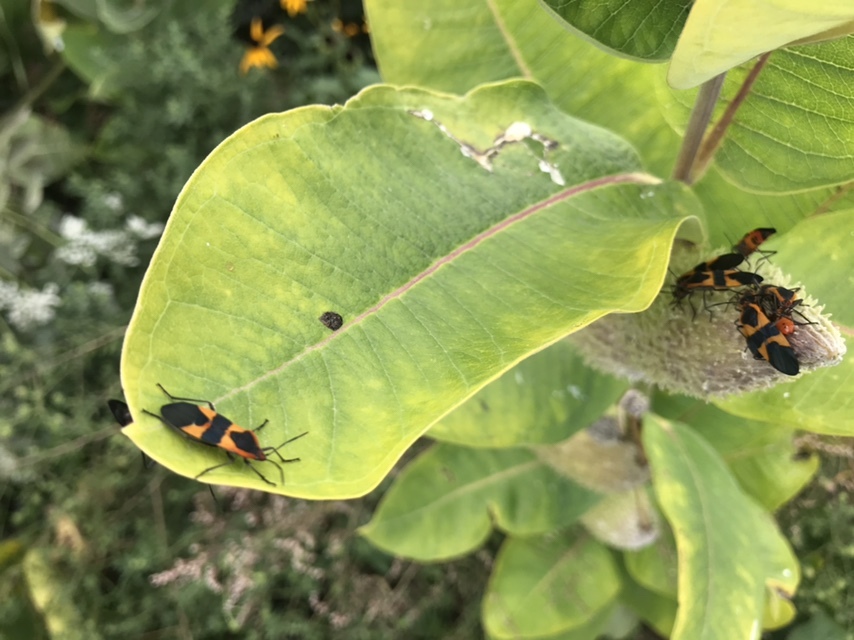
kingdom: Animalia
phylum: Arthropoda
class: Insecta
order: Hemiptera
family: Lygaeidae
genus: Oncopeltus
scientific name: Oncopeltus fasciatus
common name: Large milkweed bug
